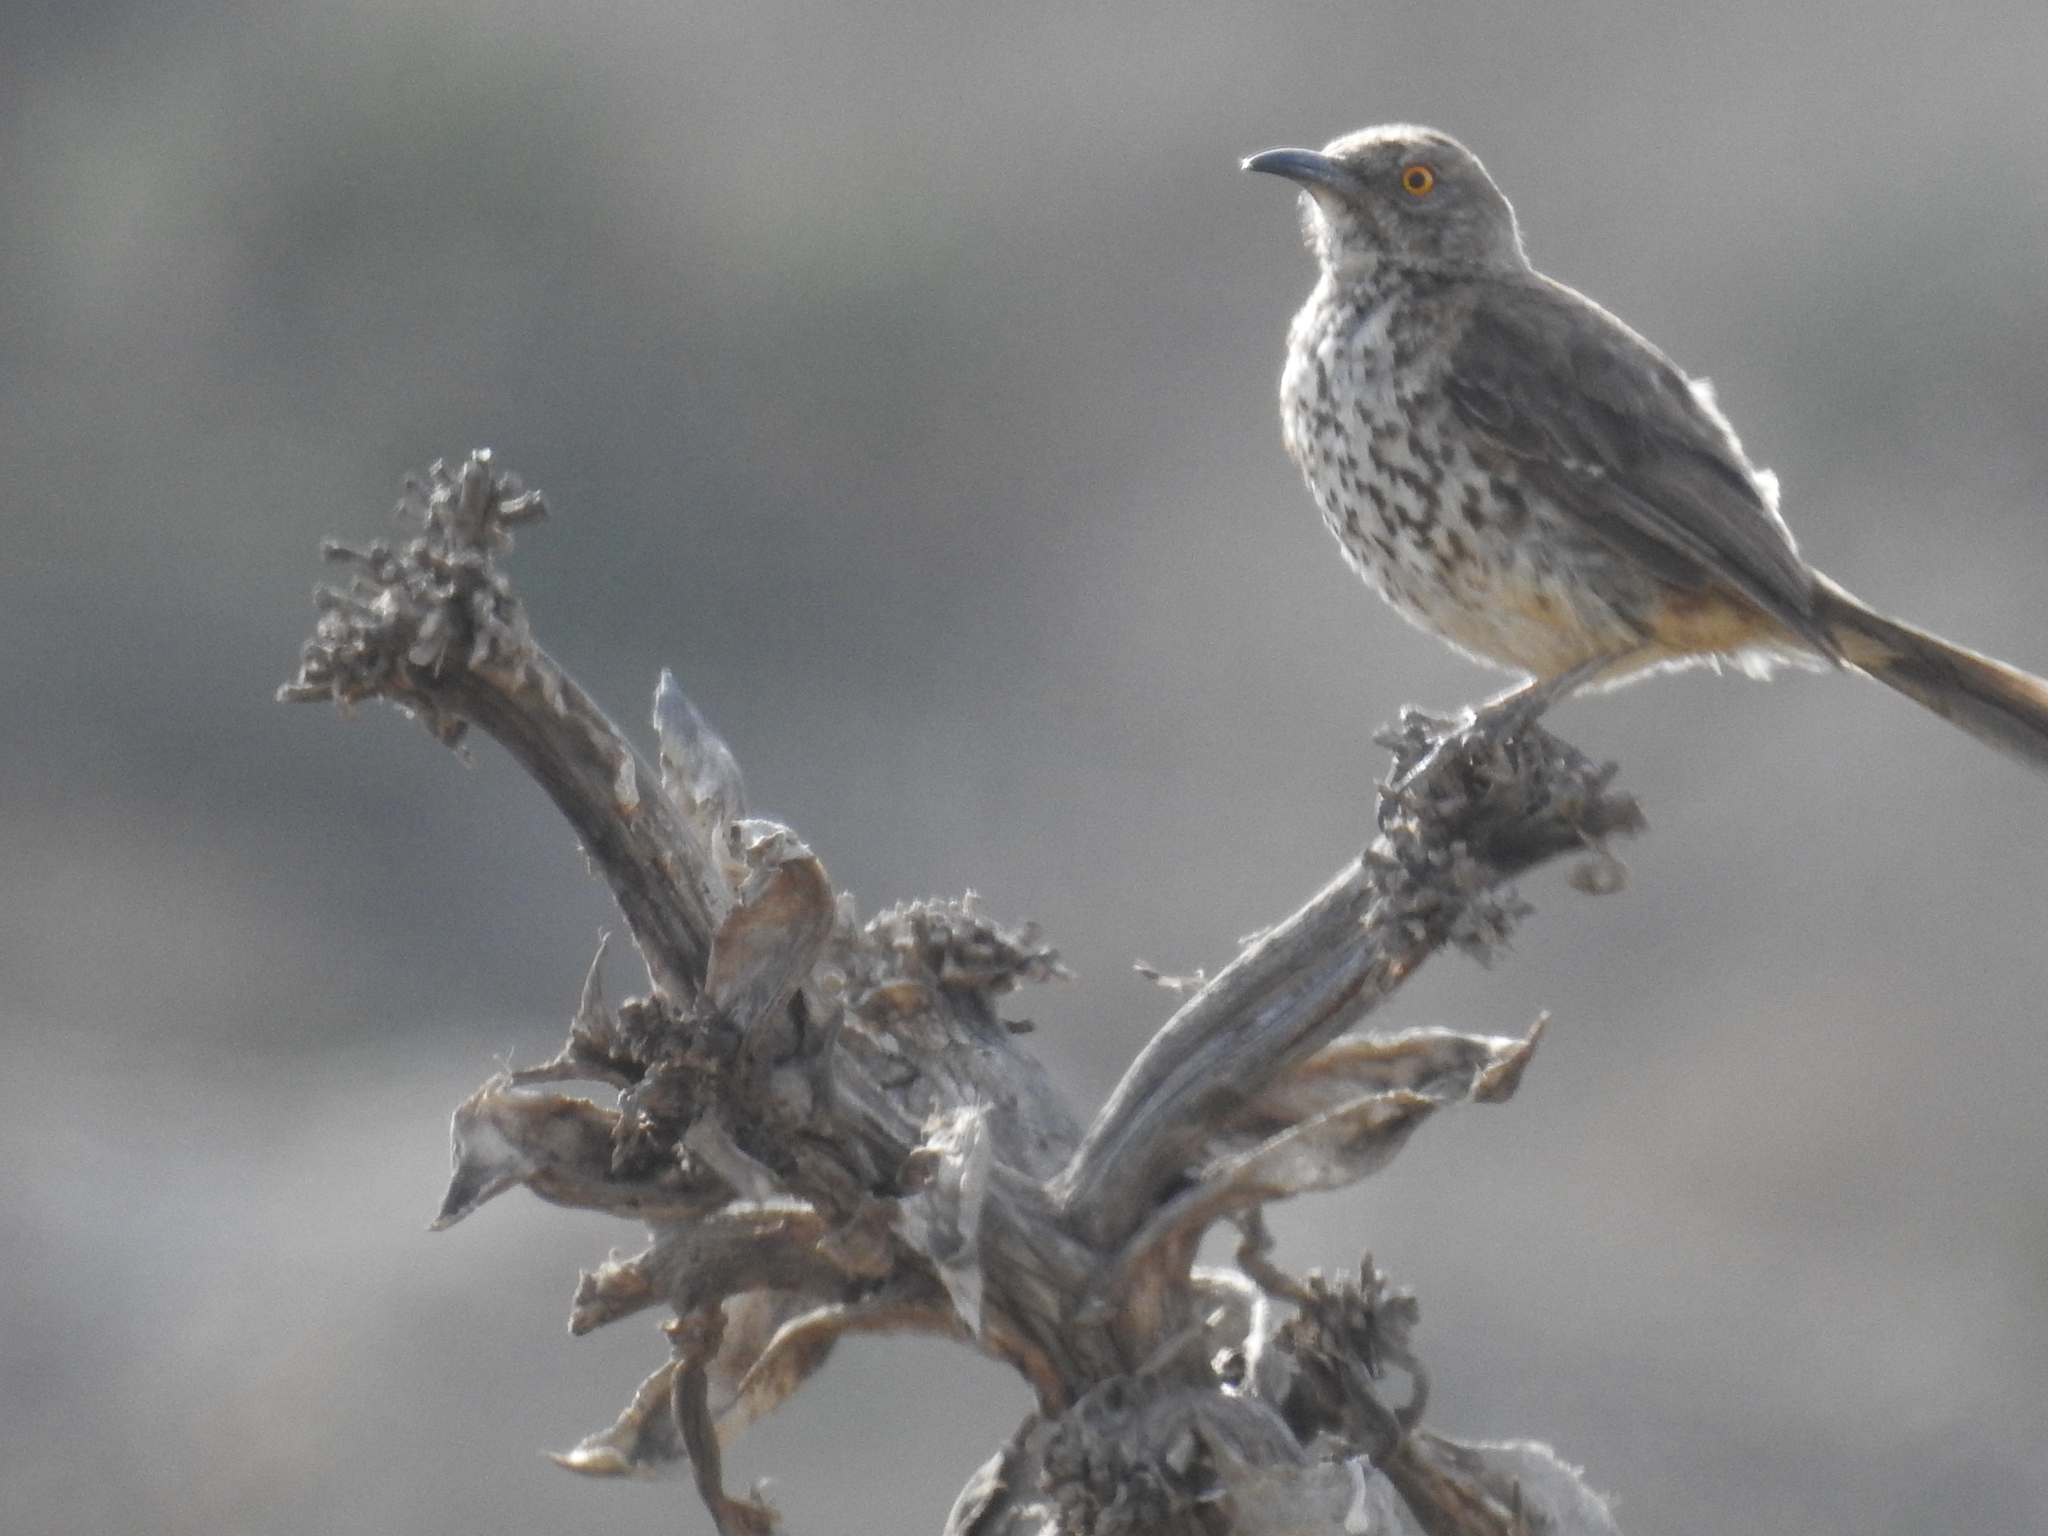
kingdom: Animalia
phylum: Chordata
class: Aves
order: Passeriformes
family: Mimidae
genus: Toxostoma
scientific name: Toxostoma cinereum
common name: Gray thrasher
